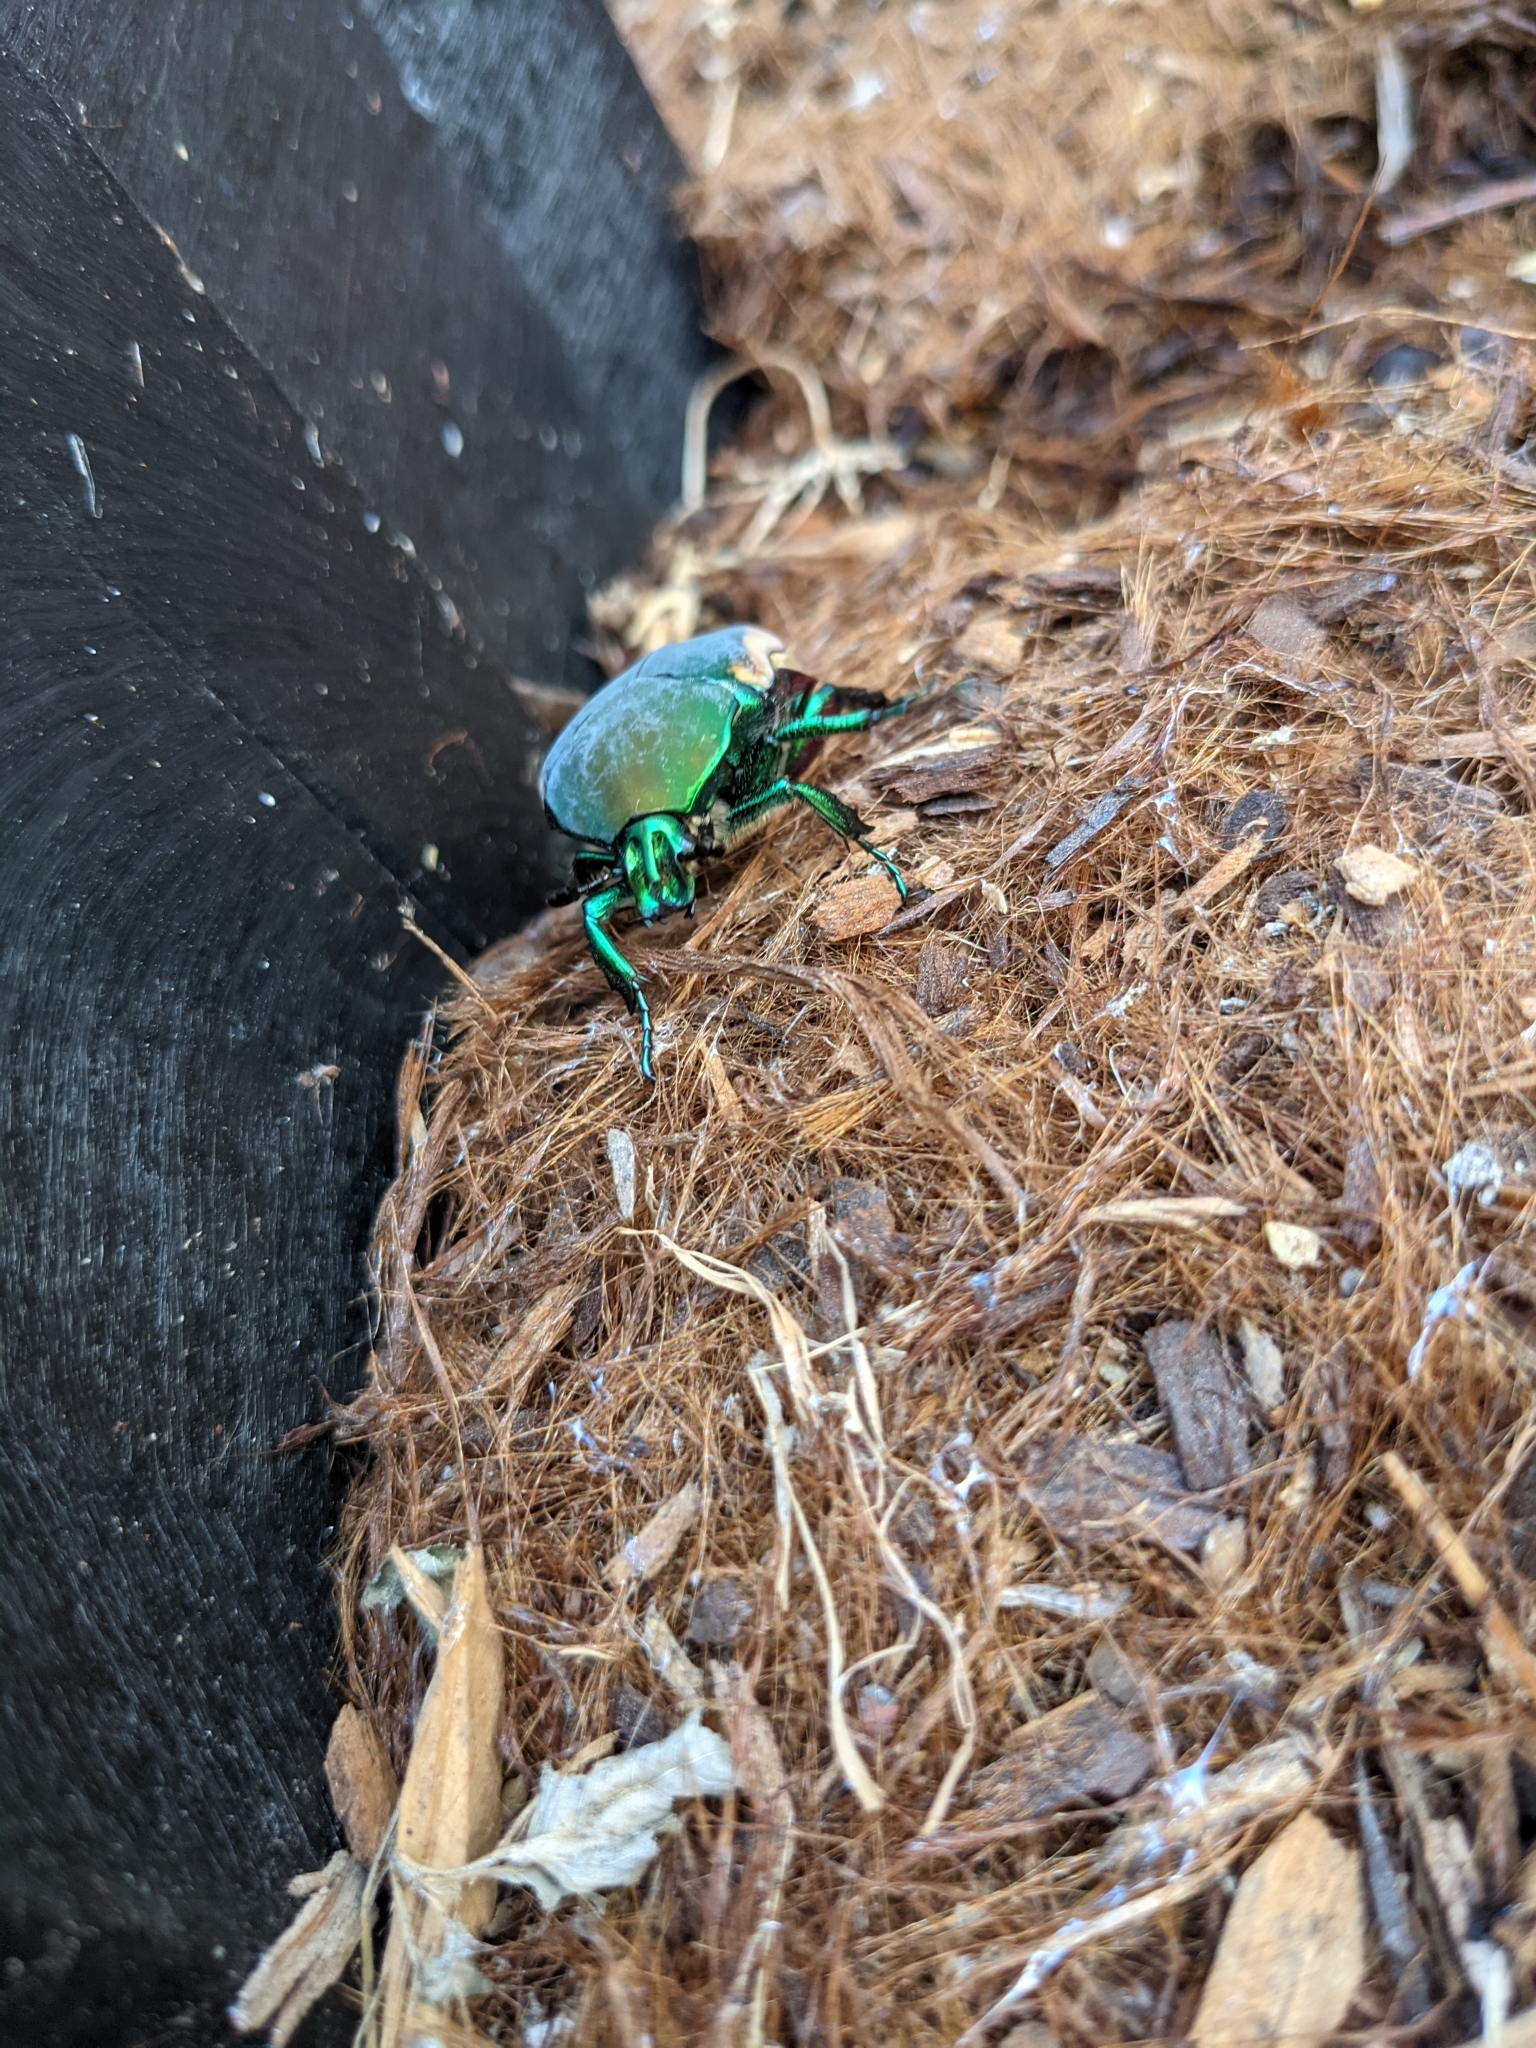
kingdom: Animalia
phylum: Arthropoda
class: Insecta
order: Coleoptera
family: Scarabaeidae
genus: Cotinis
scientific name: Cotinis mutabilis
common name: Figeater beetle
